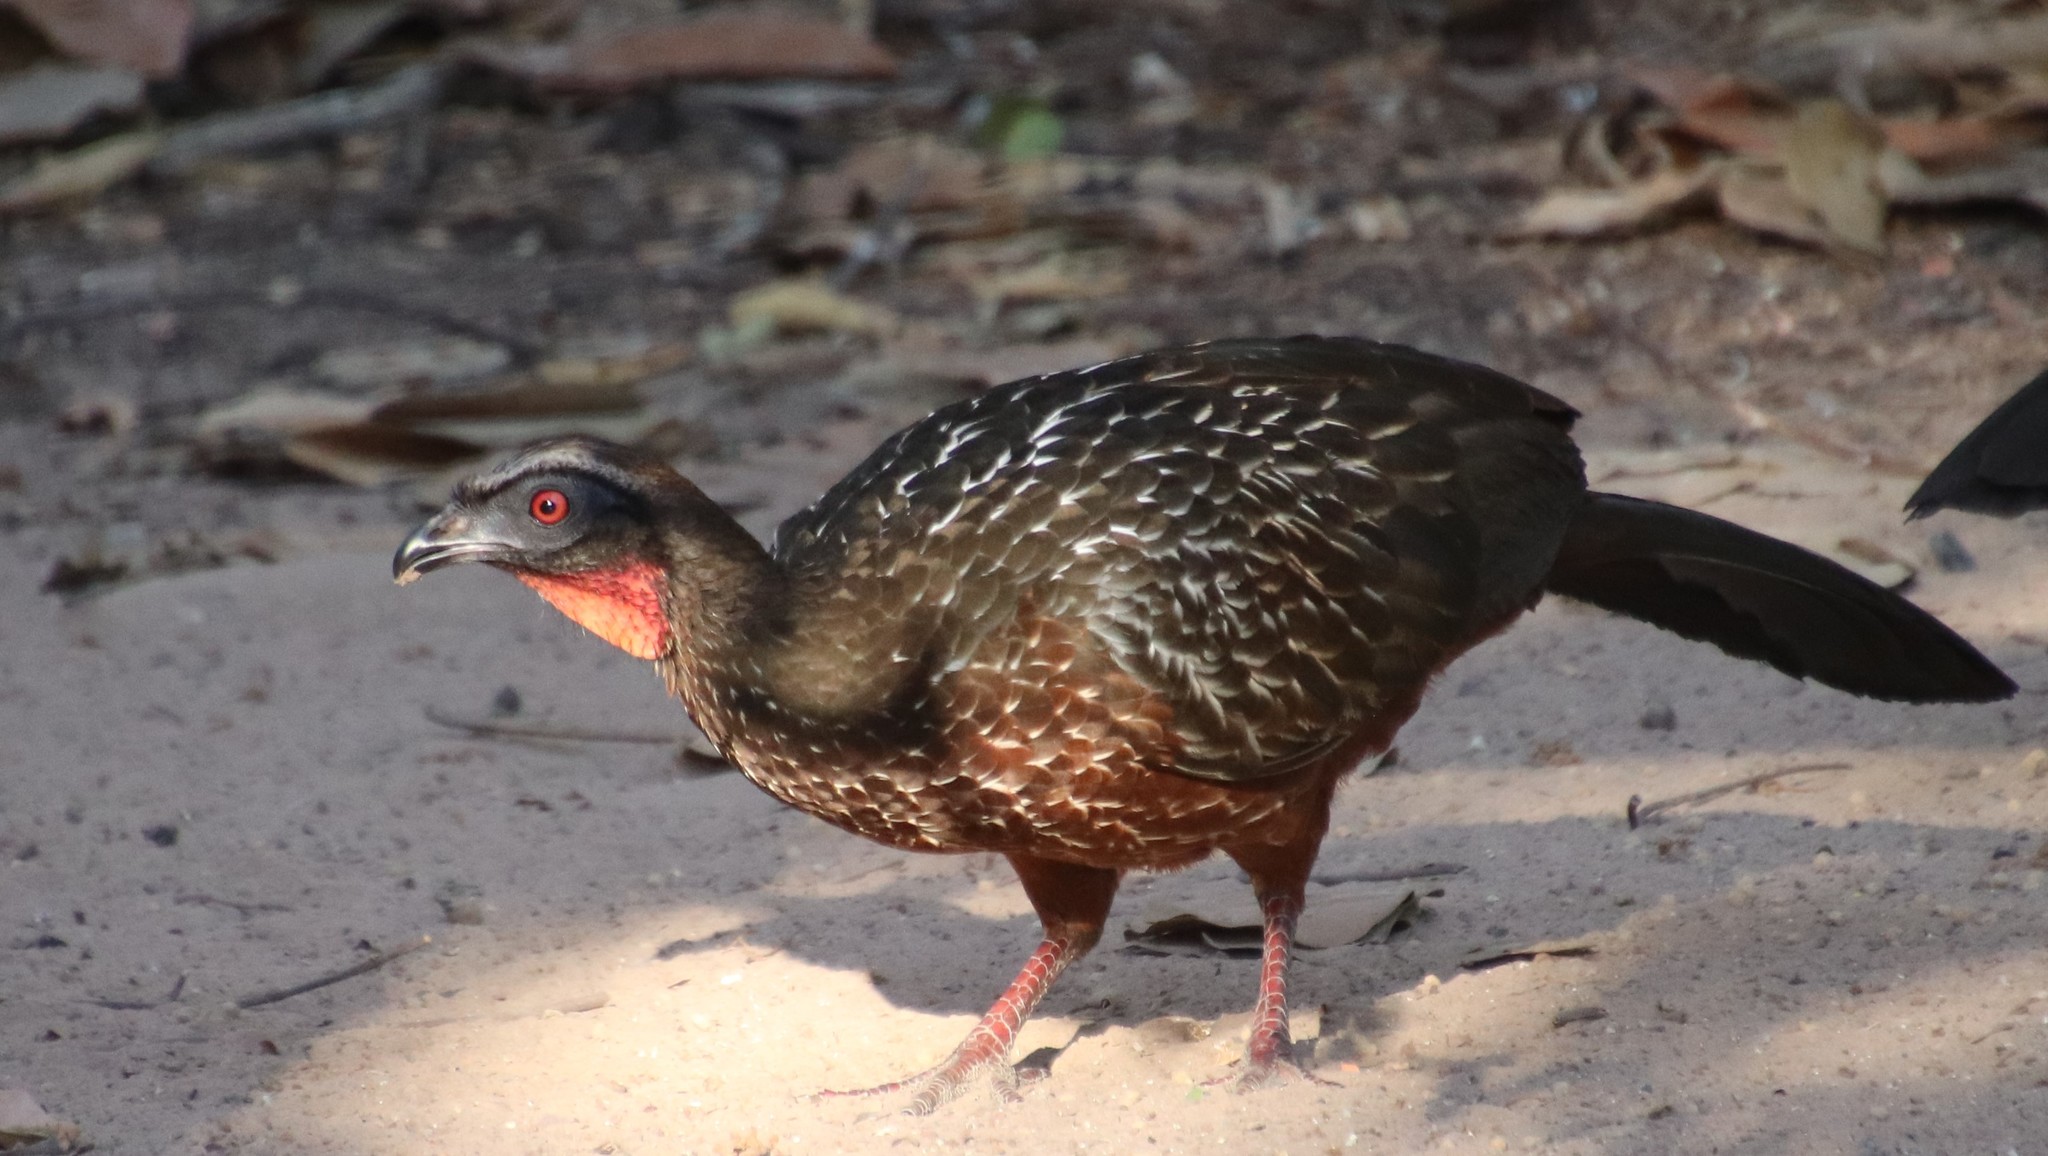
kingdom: Animalia
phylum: Chordata
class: Aves
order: Galliformes
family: Cracidae
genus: Penelope
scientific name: Penelope ochrogaster
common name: Chestnut-bellied guan
